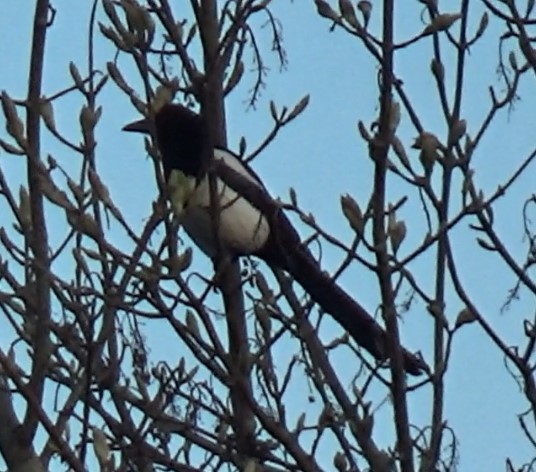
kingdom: Animalia
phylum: Chordata
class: Aves
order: Passeriformes
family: Corvidae
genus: Pica
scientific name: Pica pica
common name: Eurasian magpie
